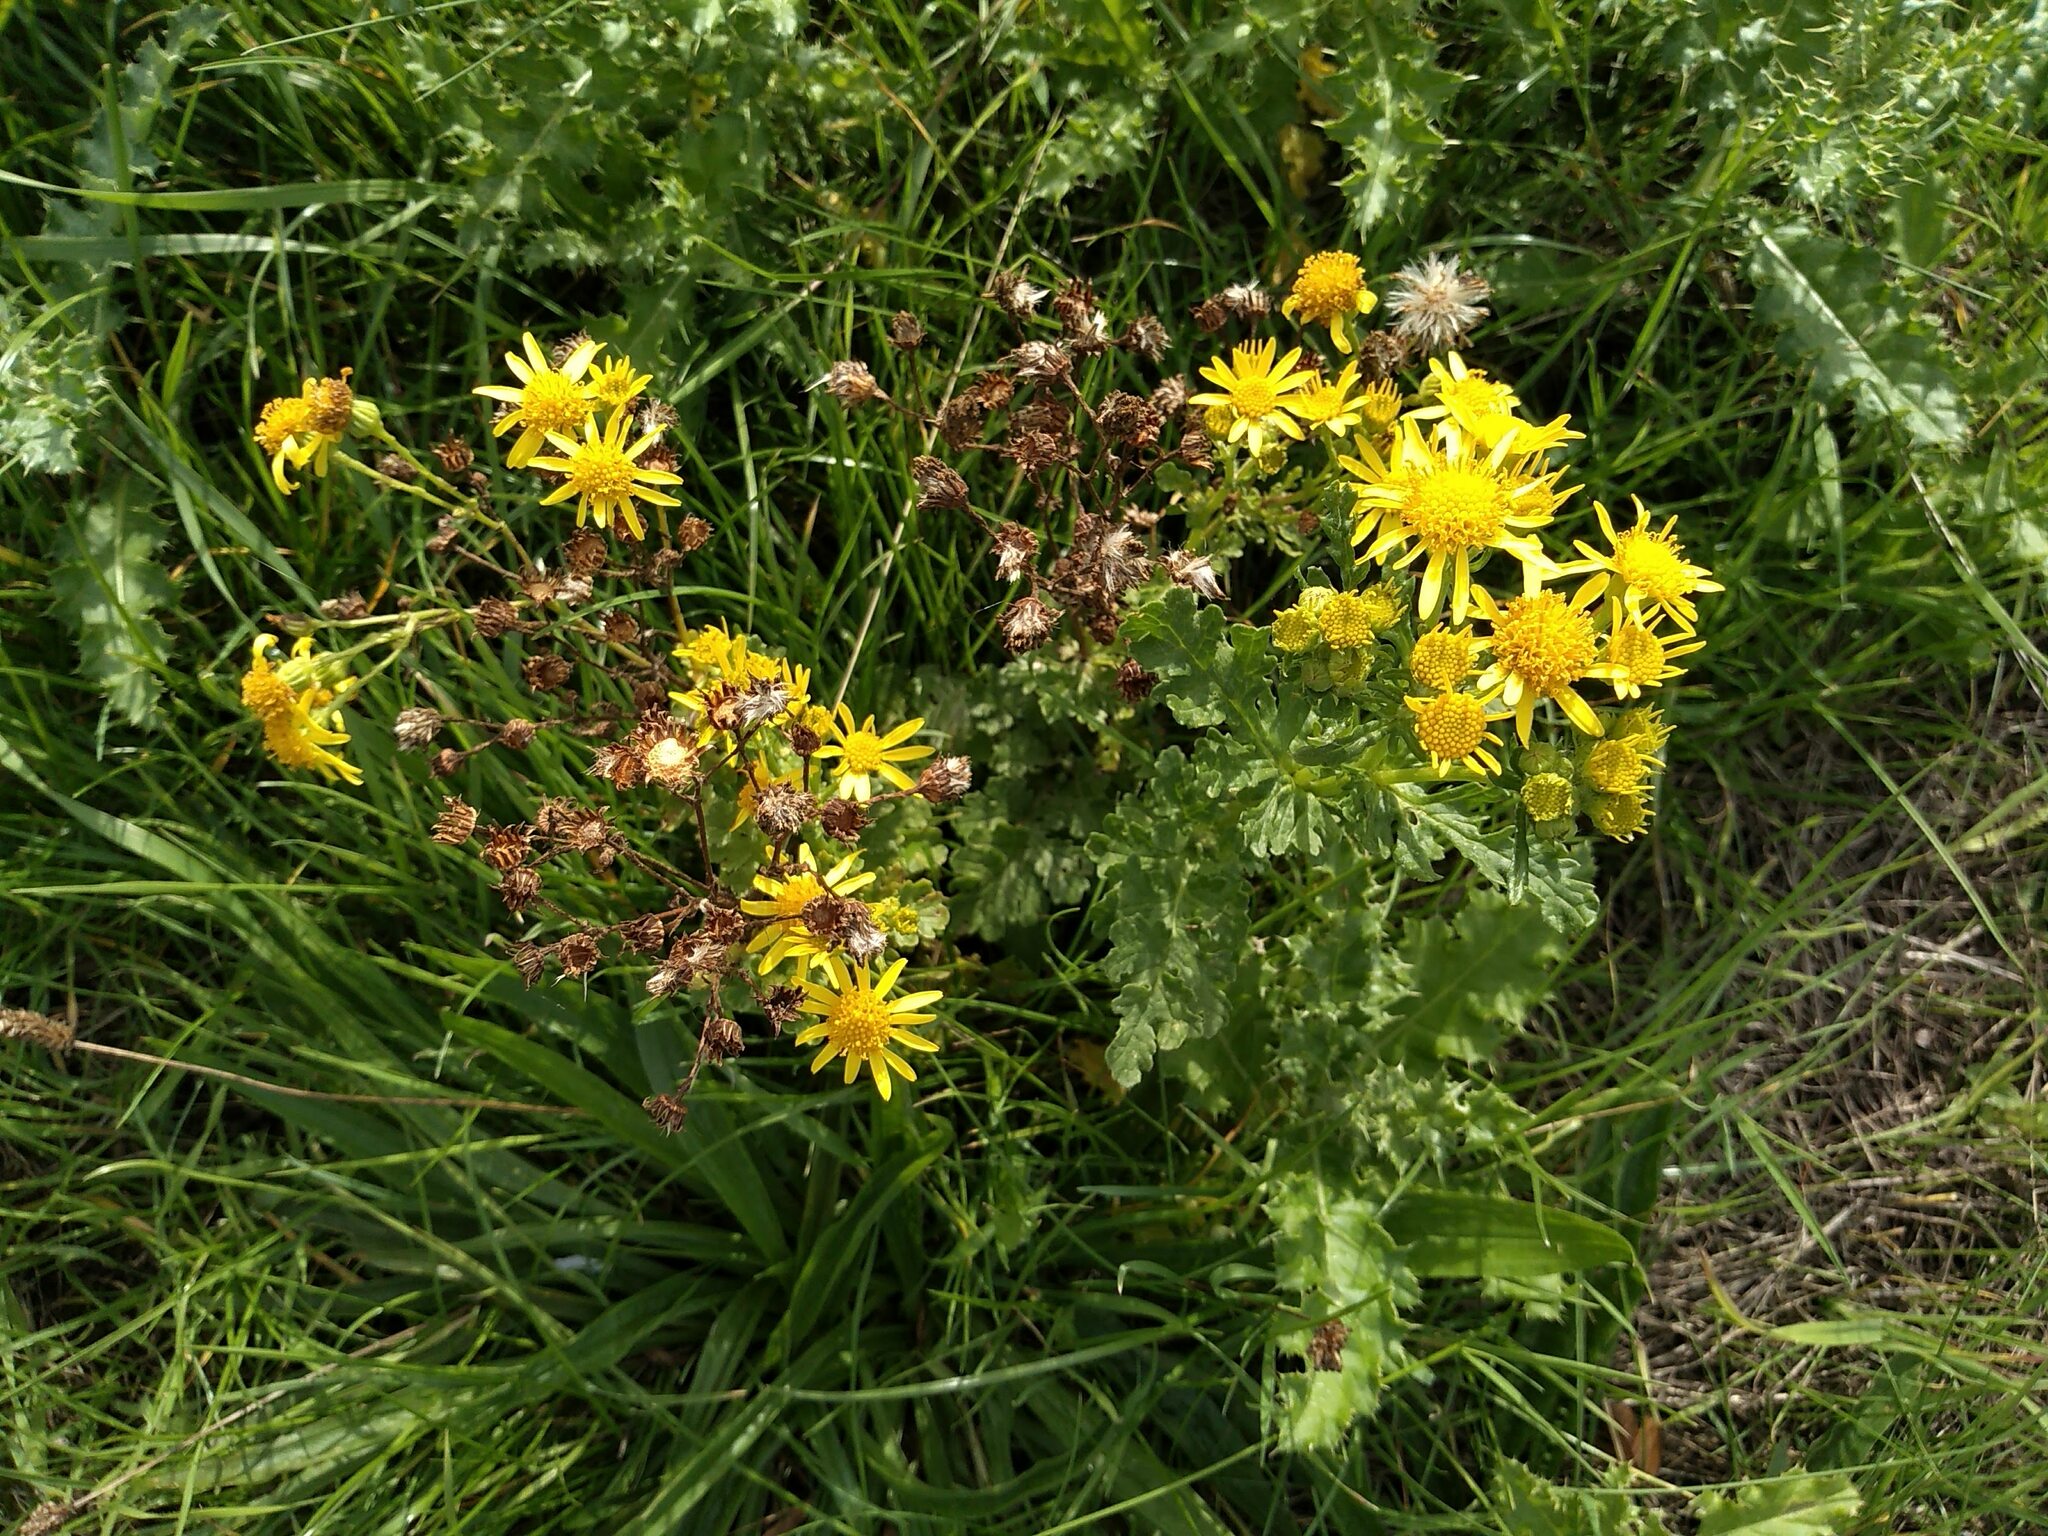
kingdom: Plantae
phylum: Tracheophyta
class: Magnoliopsida
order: Asterales
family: Asteraceae
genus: Jacobaea
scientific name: Jacobaea vulgaris
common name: Stinking willie
